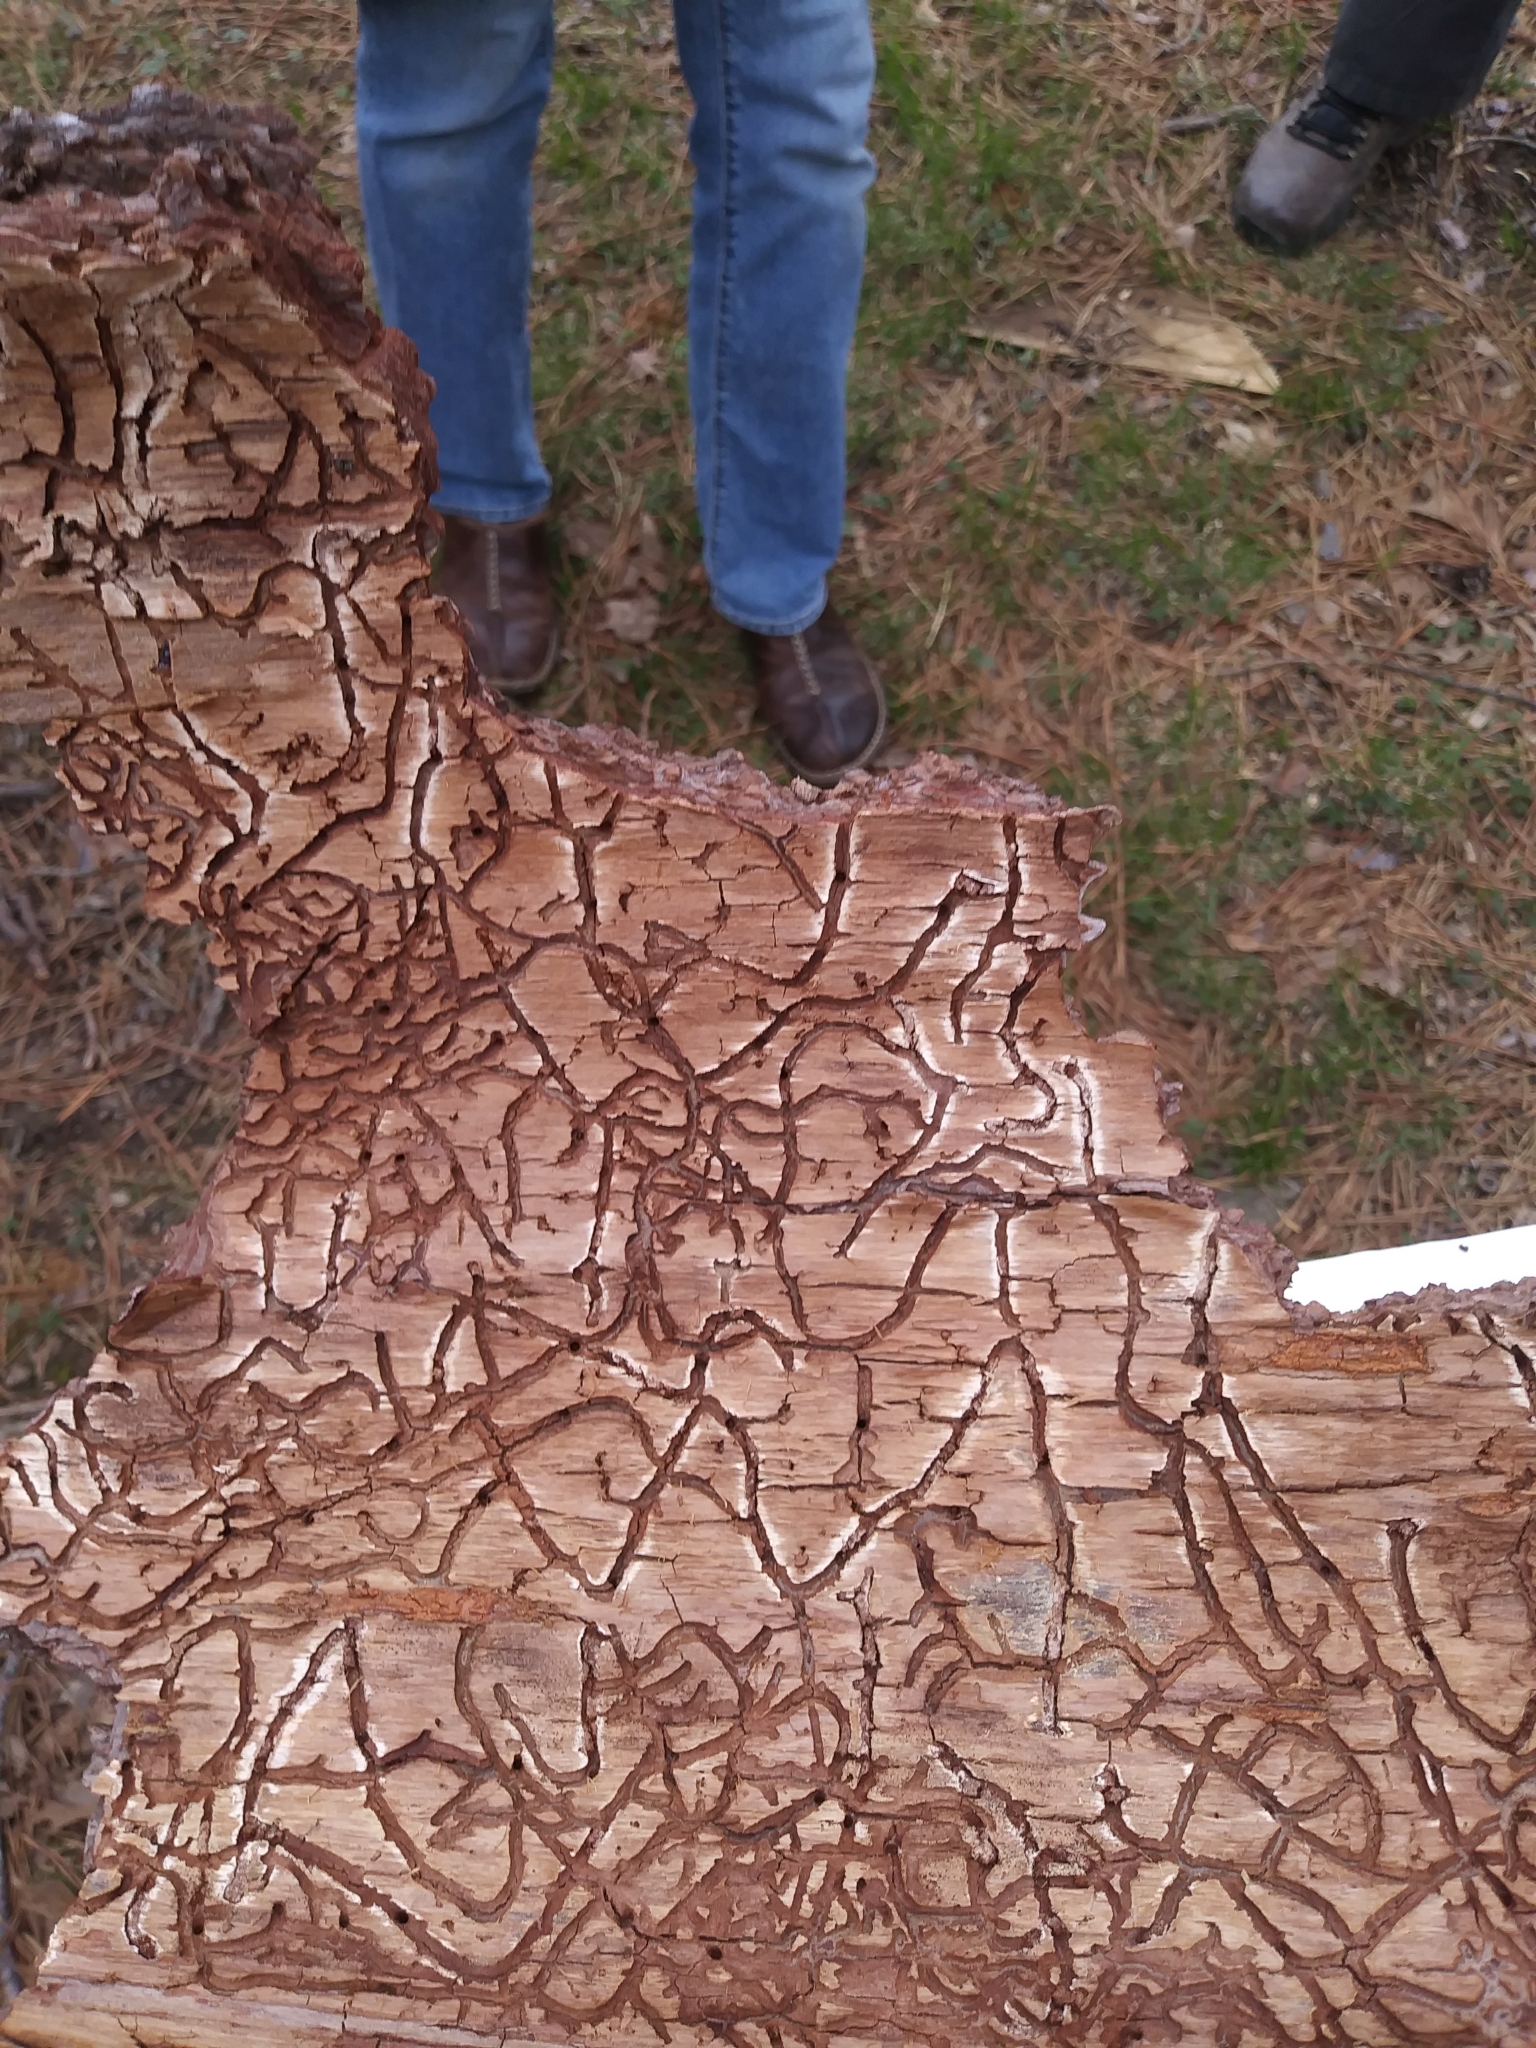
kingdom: Animalia
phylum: Arthropoda
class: Insecta
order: Coleoptera
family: Curculionidae
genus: Dendroctonus
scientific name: Dendroctonus frontalis
